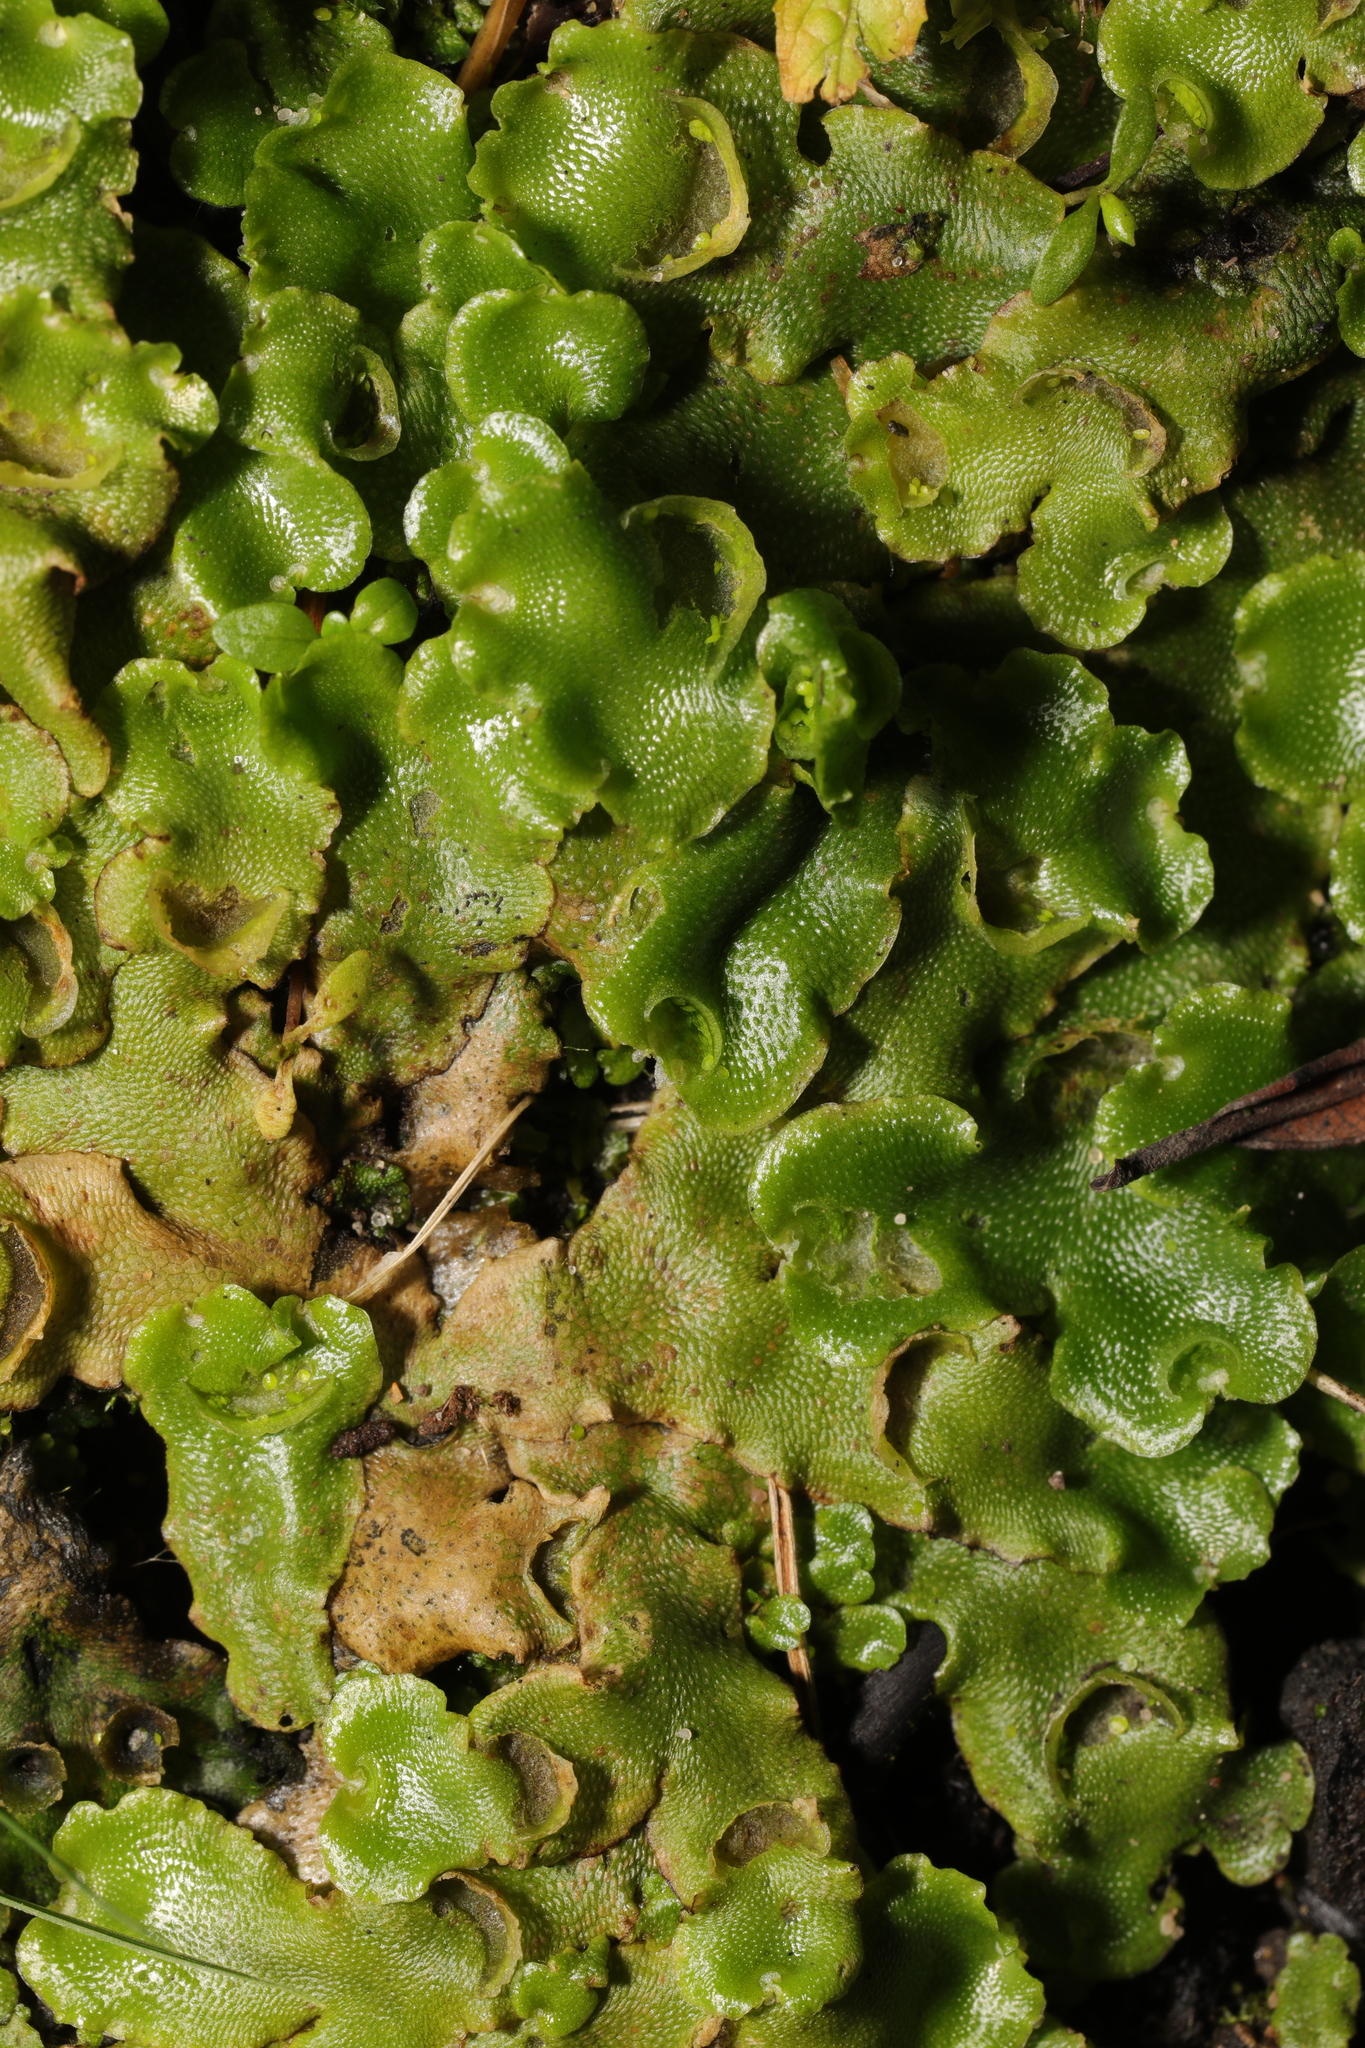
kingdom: Plantae
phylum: Marchantiophyta
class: Marchantiopsida
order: Lunulariales
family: Lunulariaceae
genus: Lunularia
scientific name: Lunularia cruciata
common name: Crescent-cup liverwort
